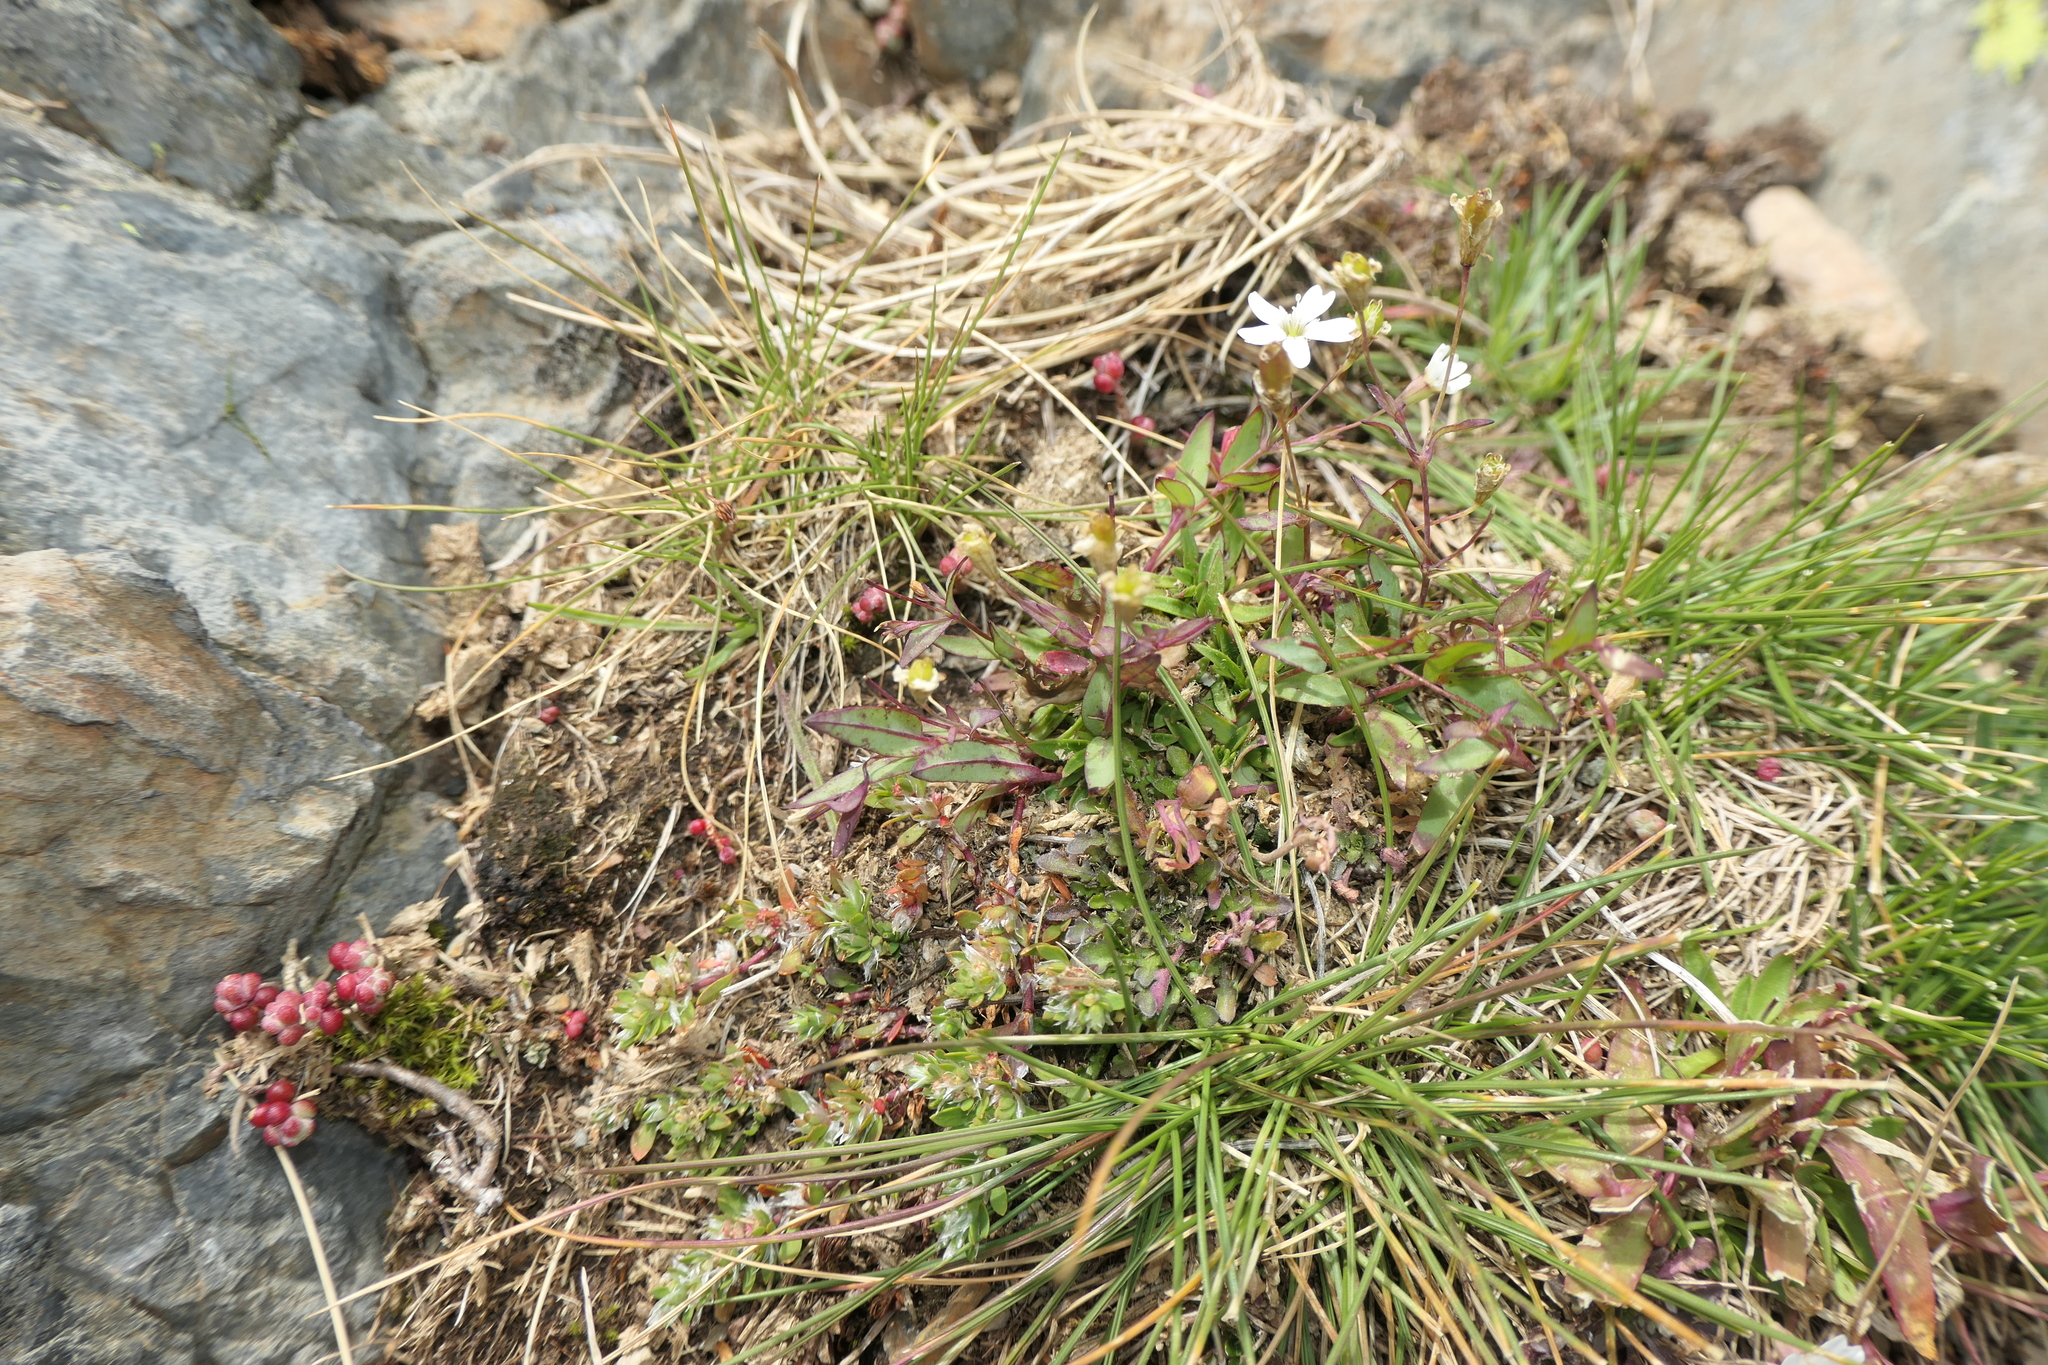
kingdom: Plantae
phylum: Tracheophyta
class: Magnoliopsida
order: Caryophyllales
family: Caryophyllaceae
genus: Atocion
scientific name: Atocion rupestre
